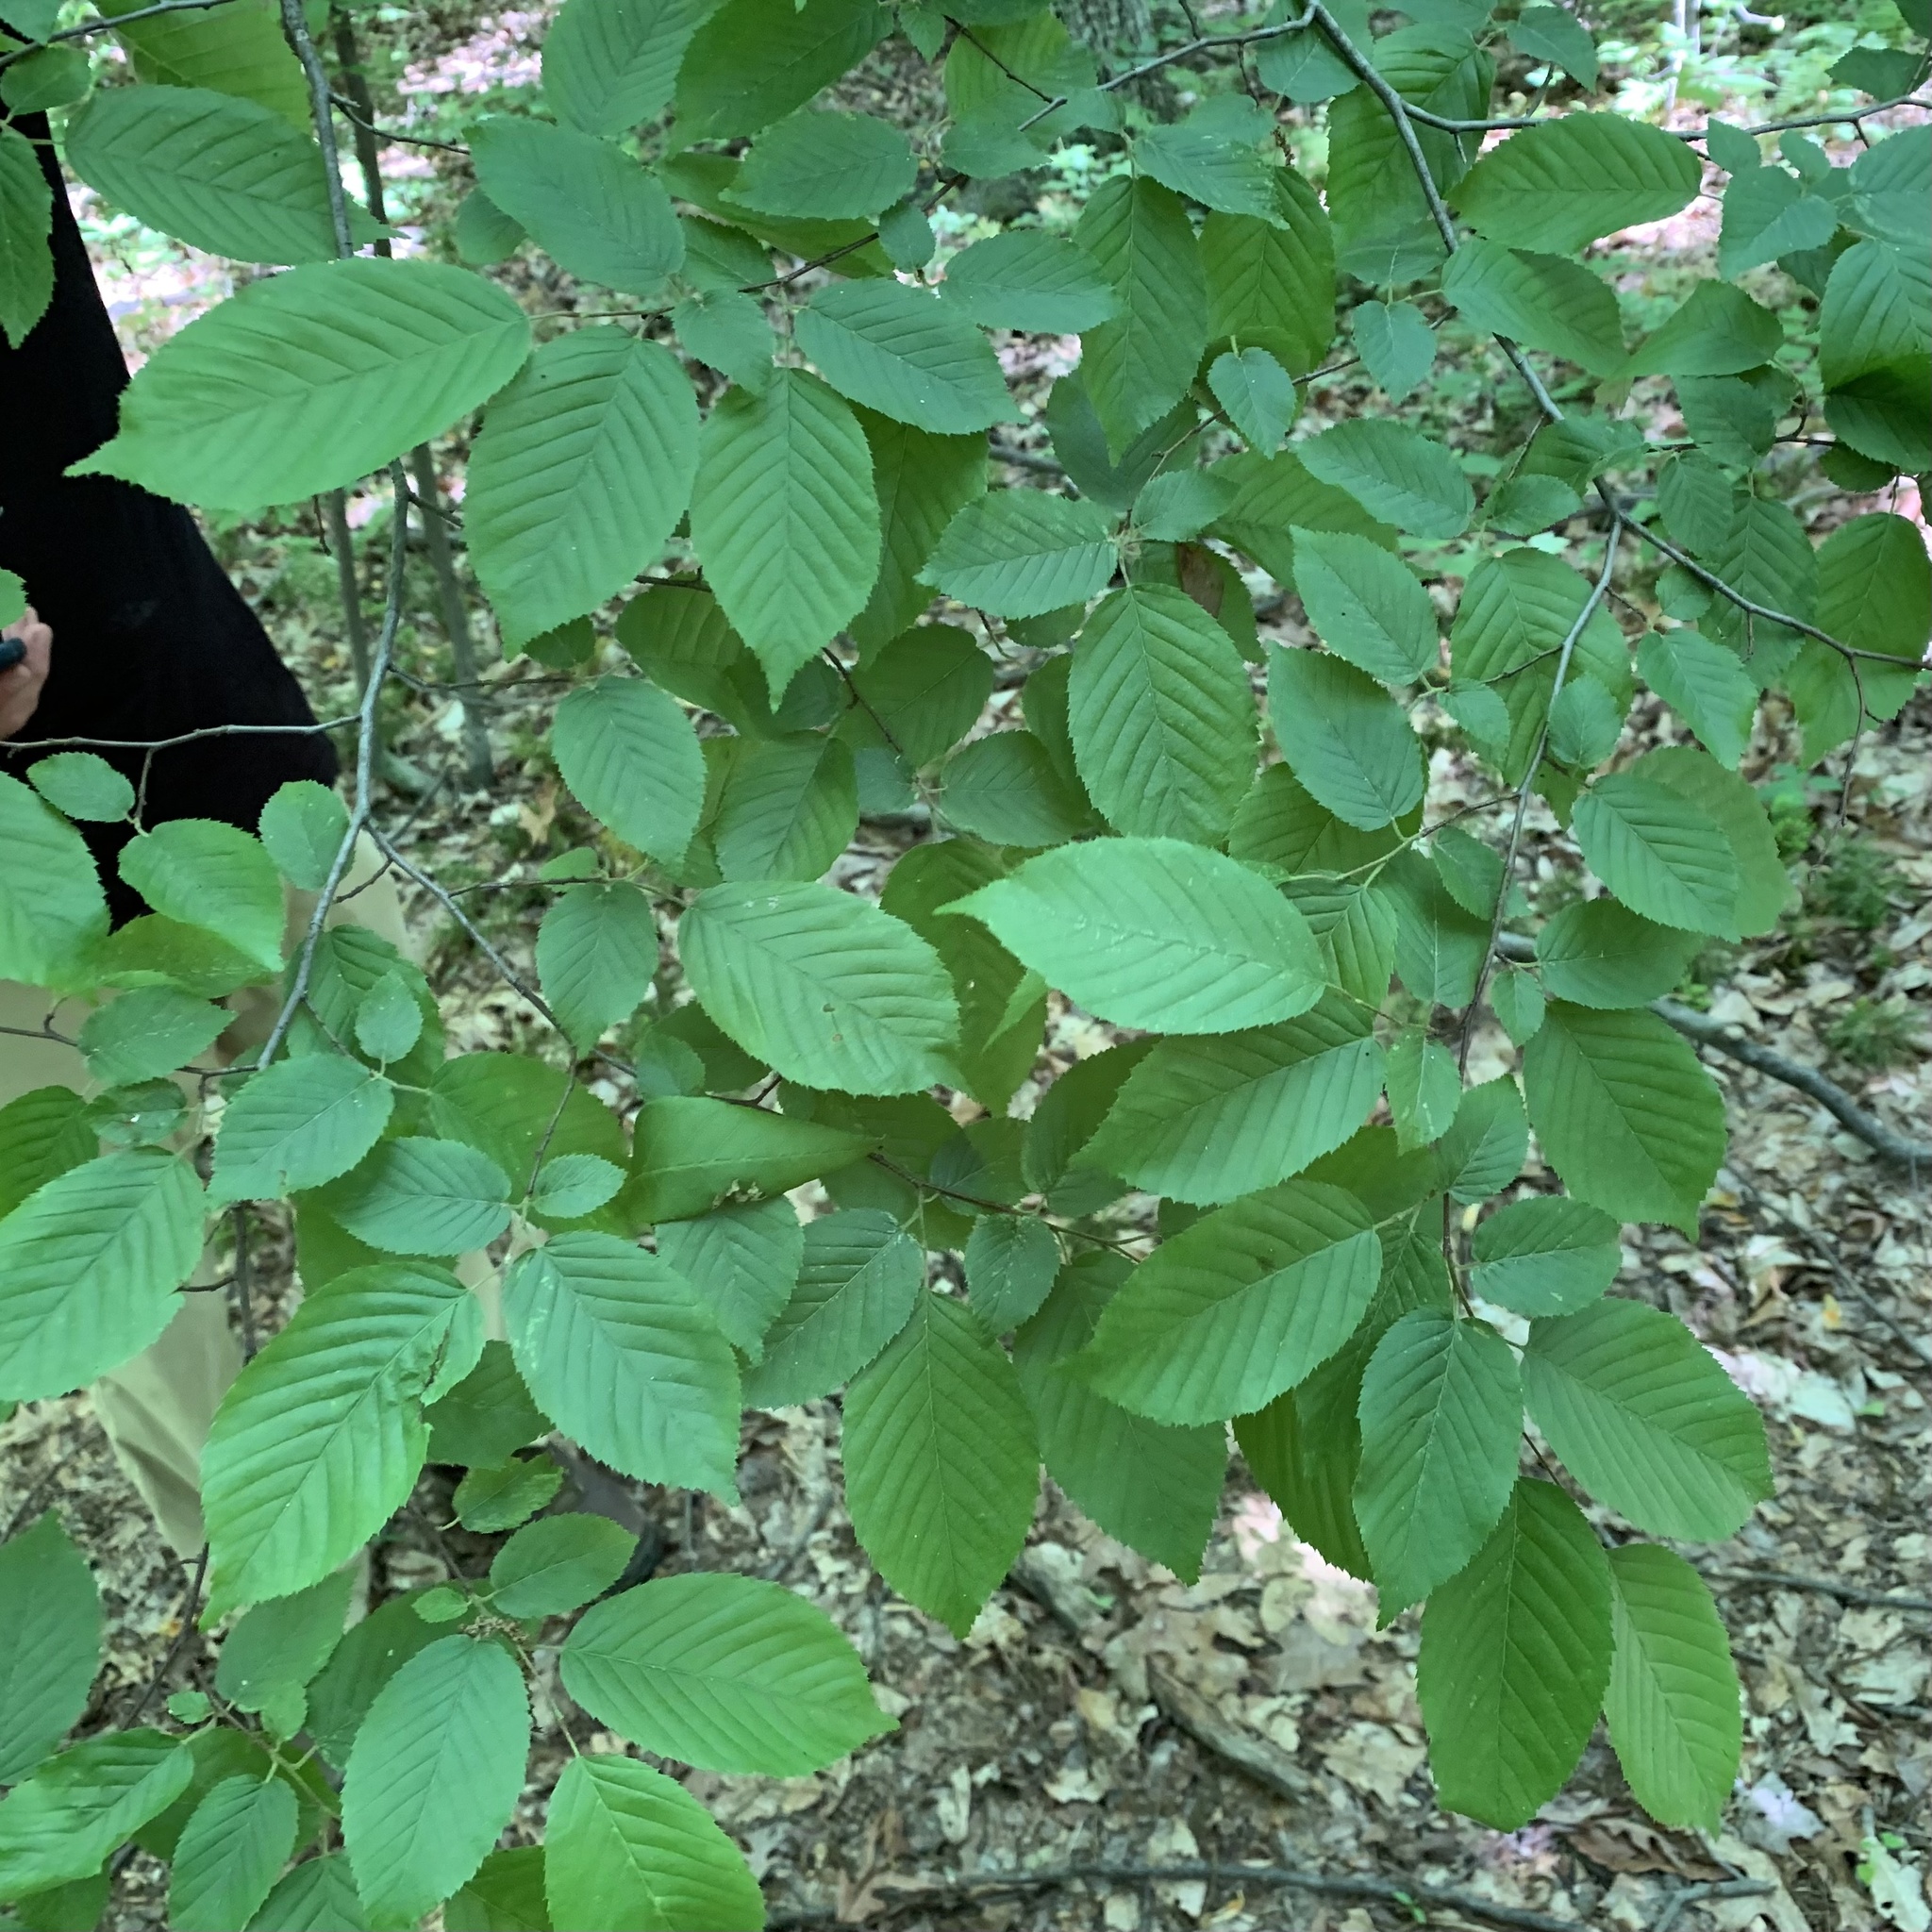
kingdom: Plantae
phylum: Tracheophyta
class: Magnoliopsida
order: Fagales
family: Betulaceae
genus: Carpinus
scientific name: Carpinus caroliniana
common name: American hornbeam
